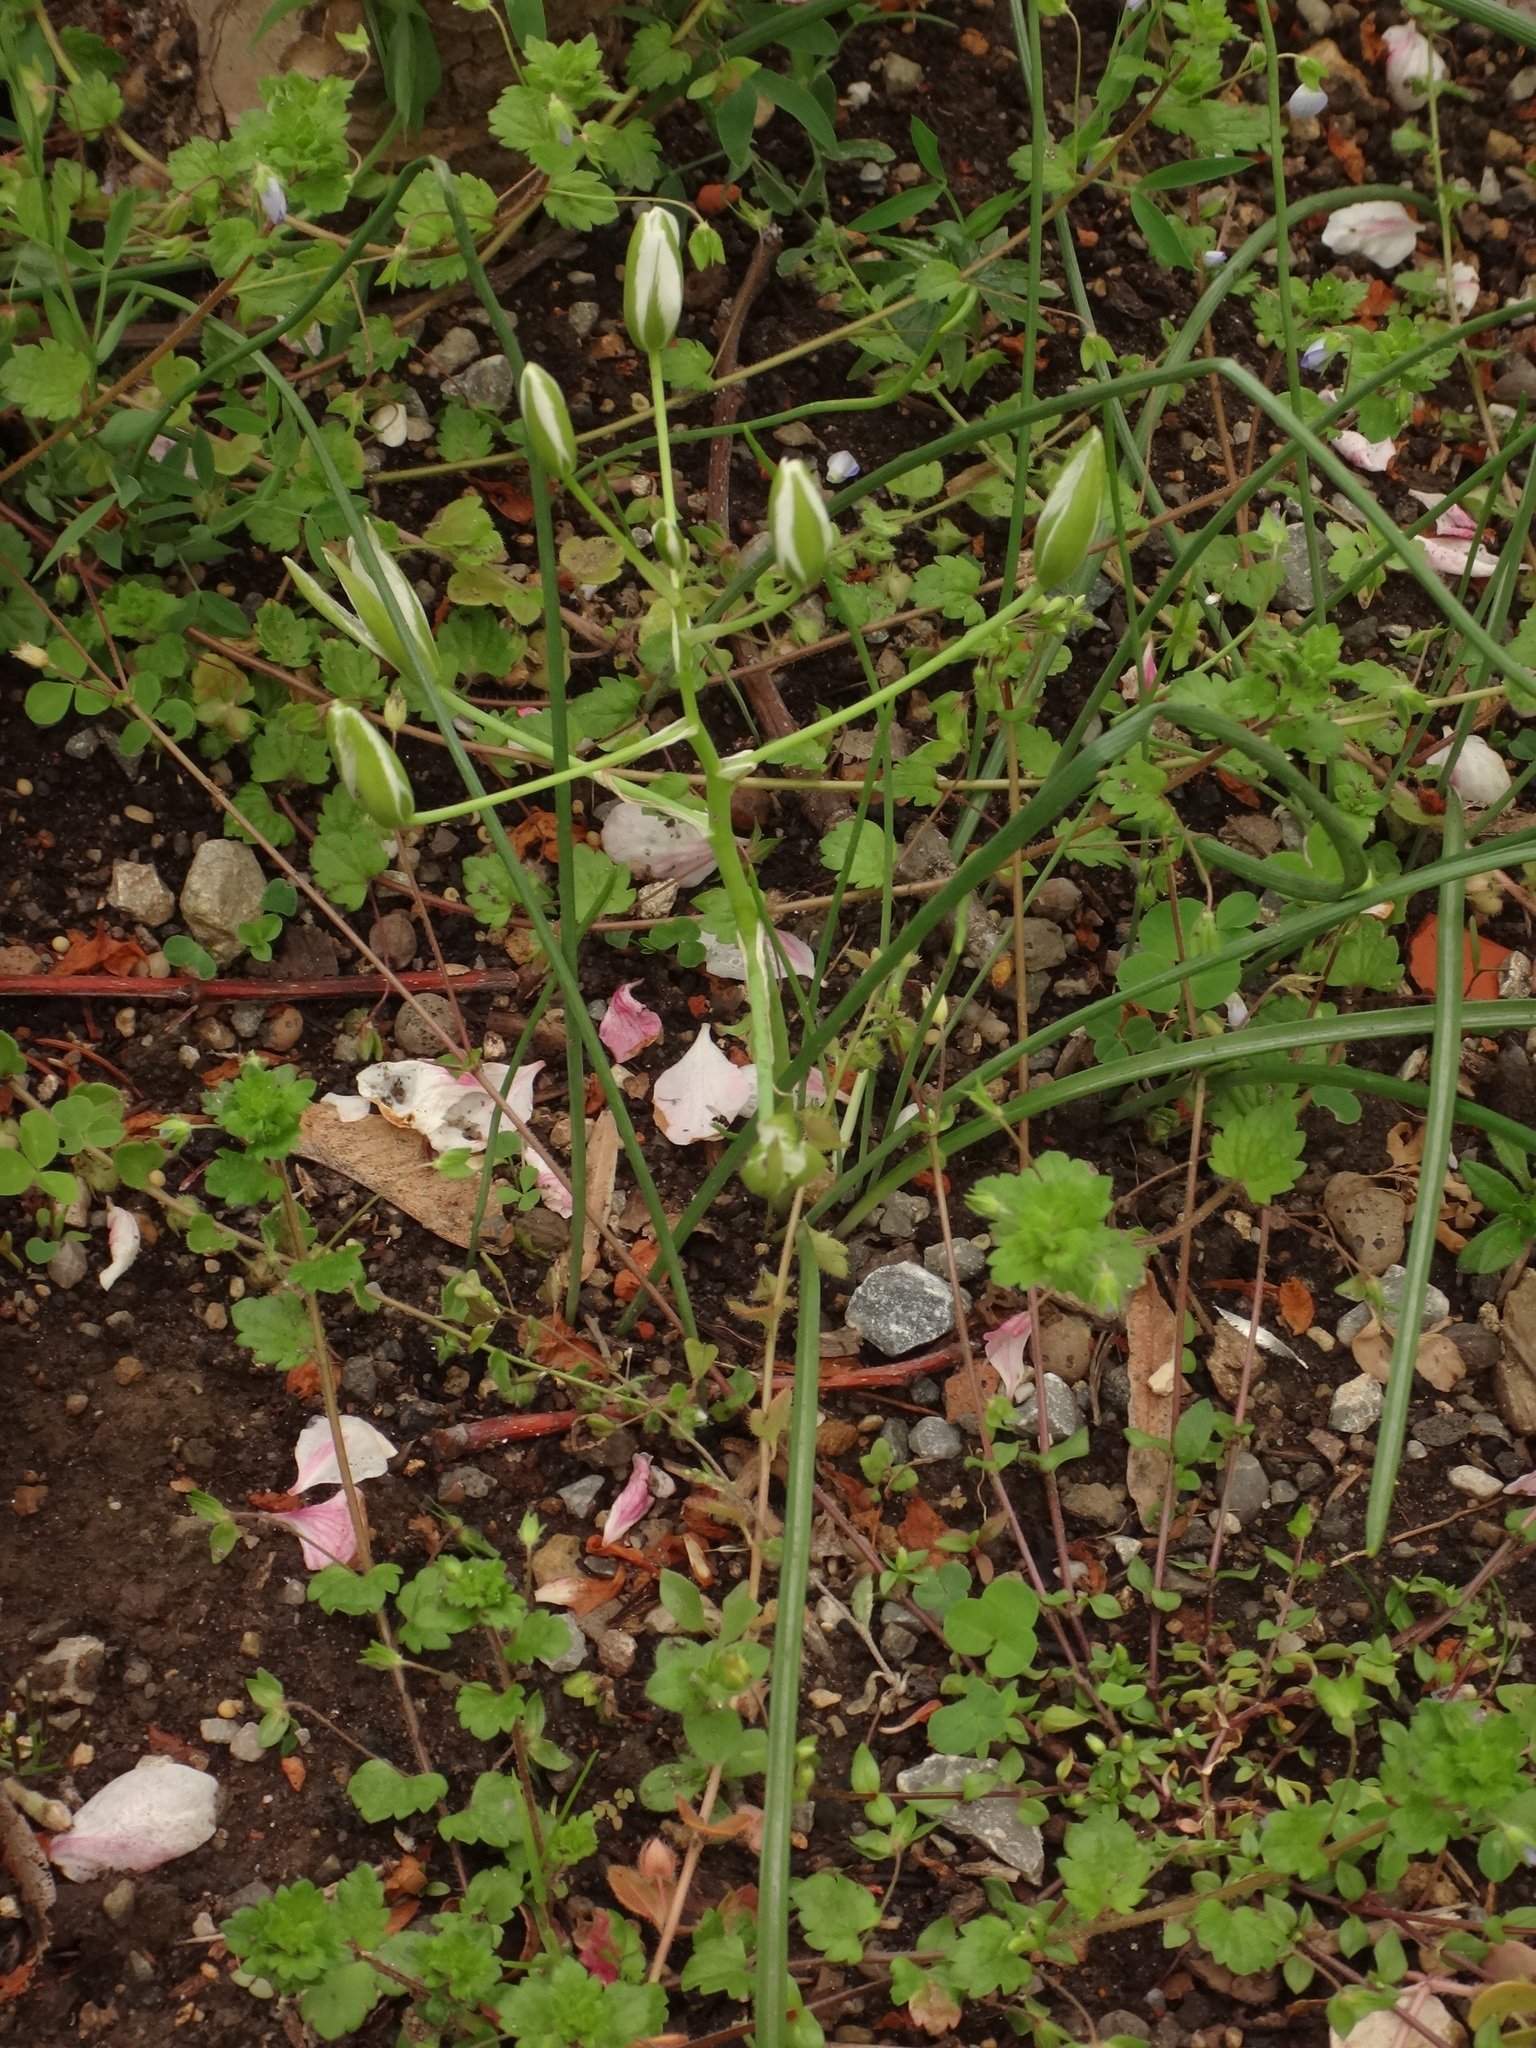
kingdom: Plantae
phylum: Tracheophyta
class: Liliopsida
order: Asparagales
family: Asparagaceae
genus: Ornithogalum
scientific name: Ornithogalum
